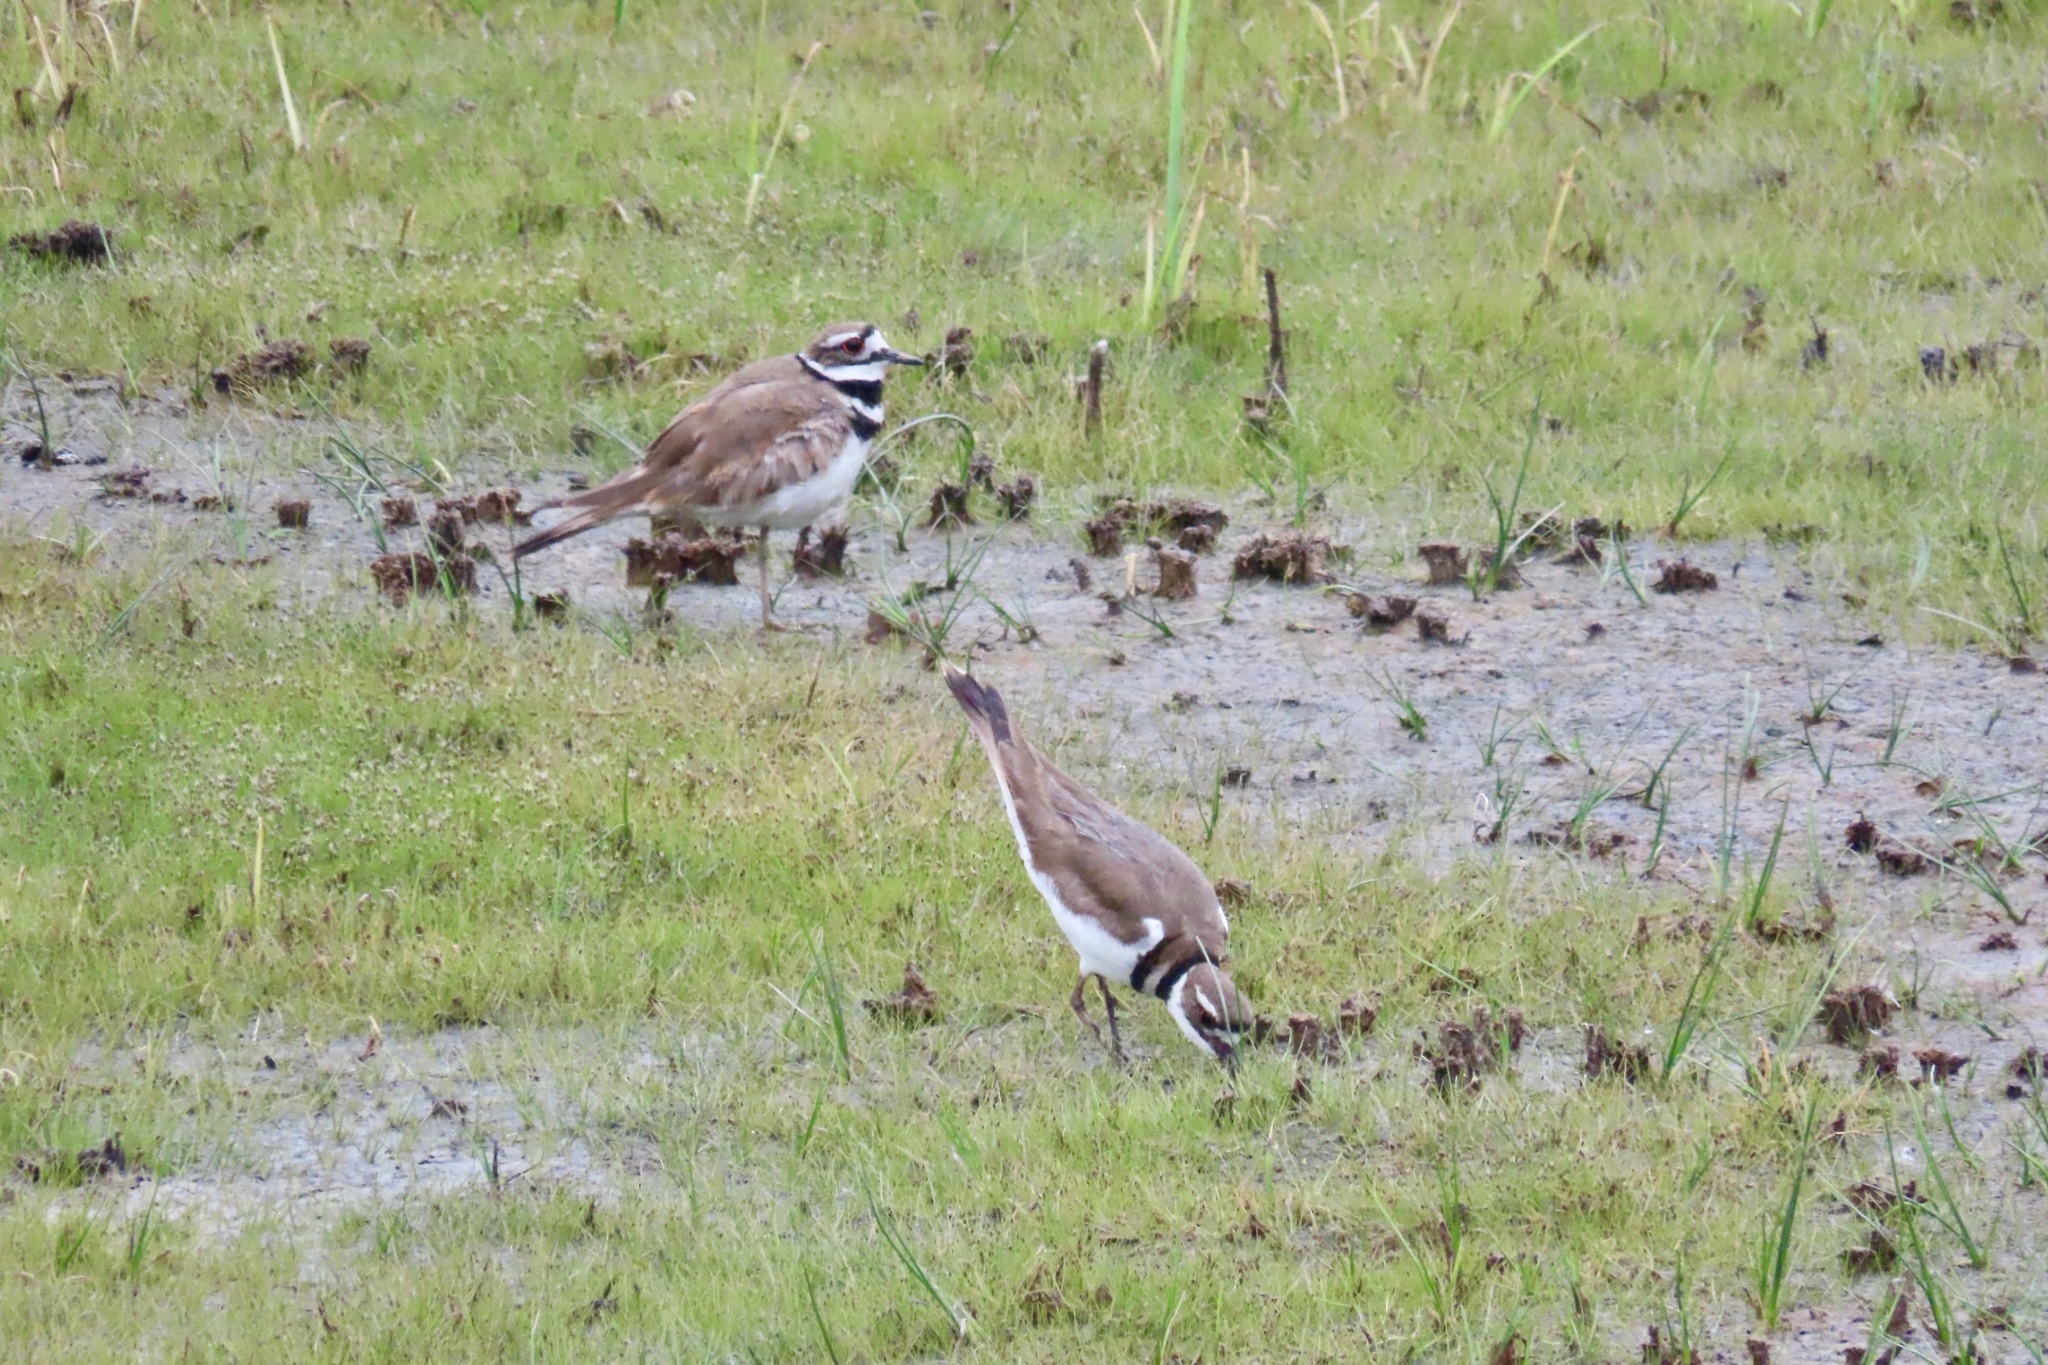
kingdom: Animalia
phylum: Chordata
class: Aves
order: Charadriiformes
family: Charadriidae
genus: Charadrius
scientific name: Charadrius vociferus
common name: Killdeer
